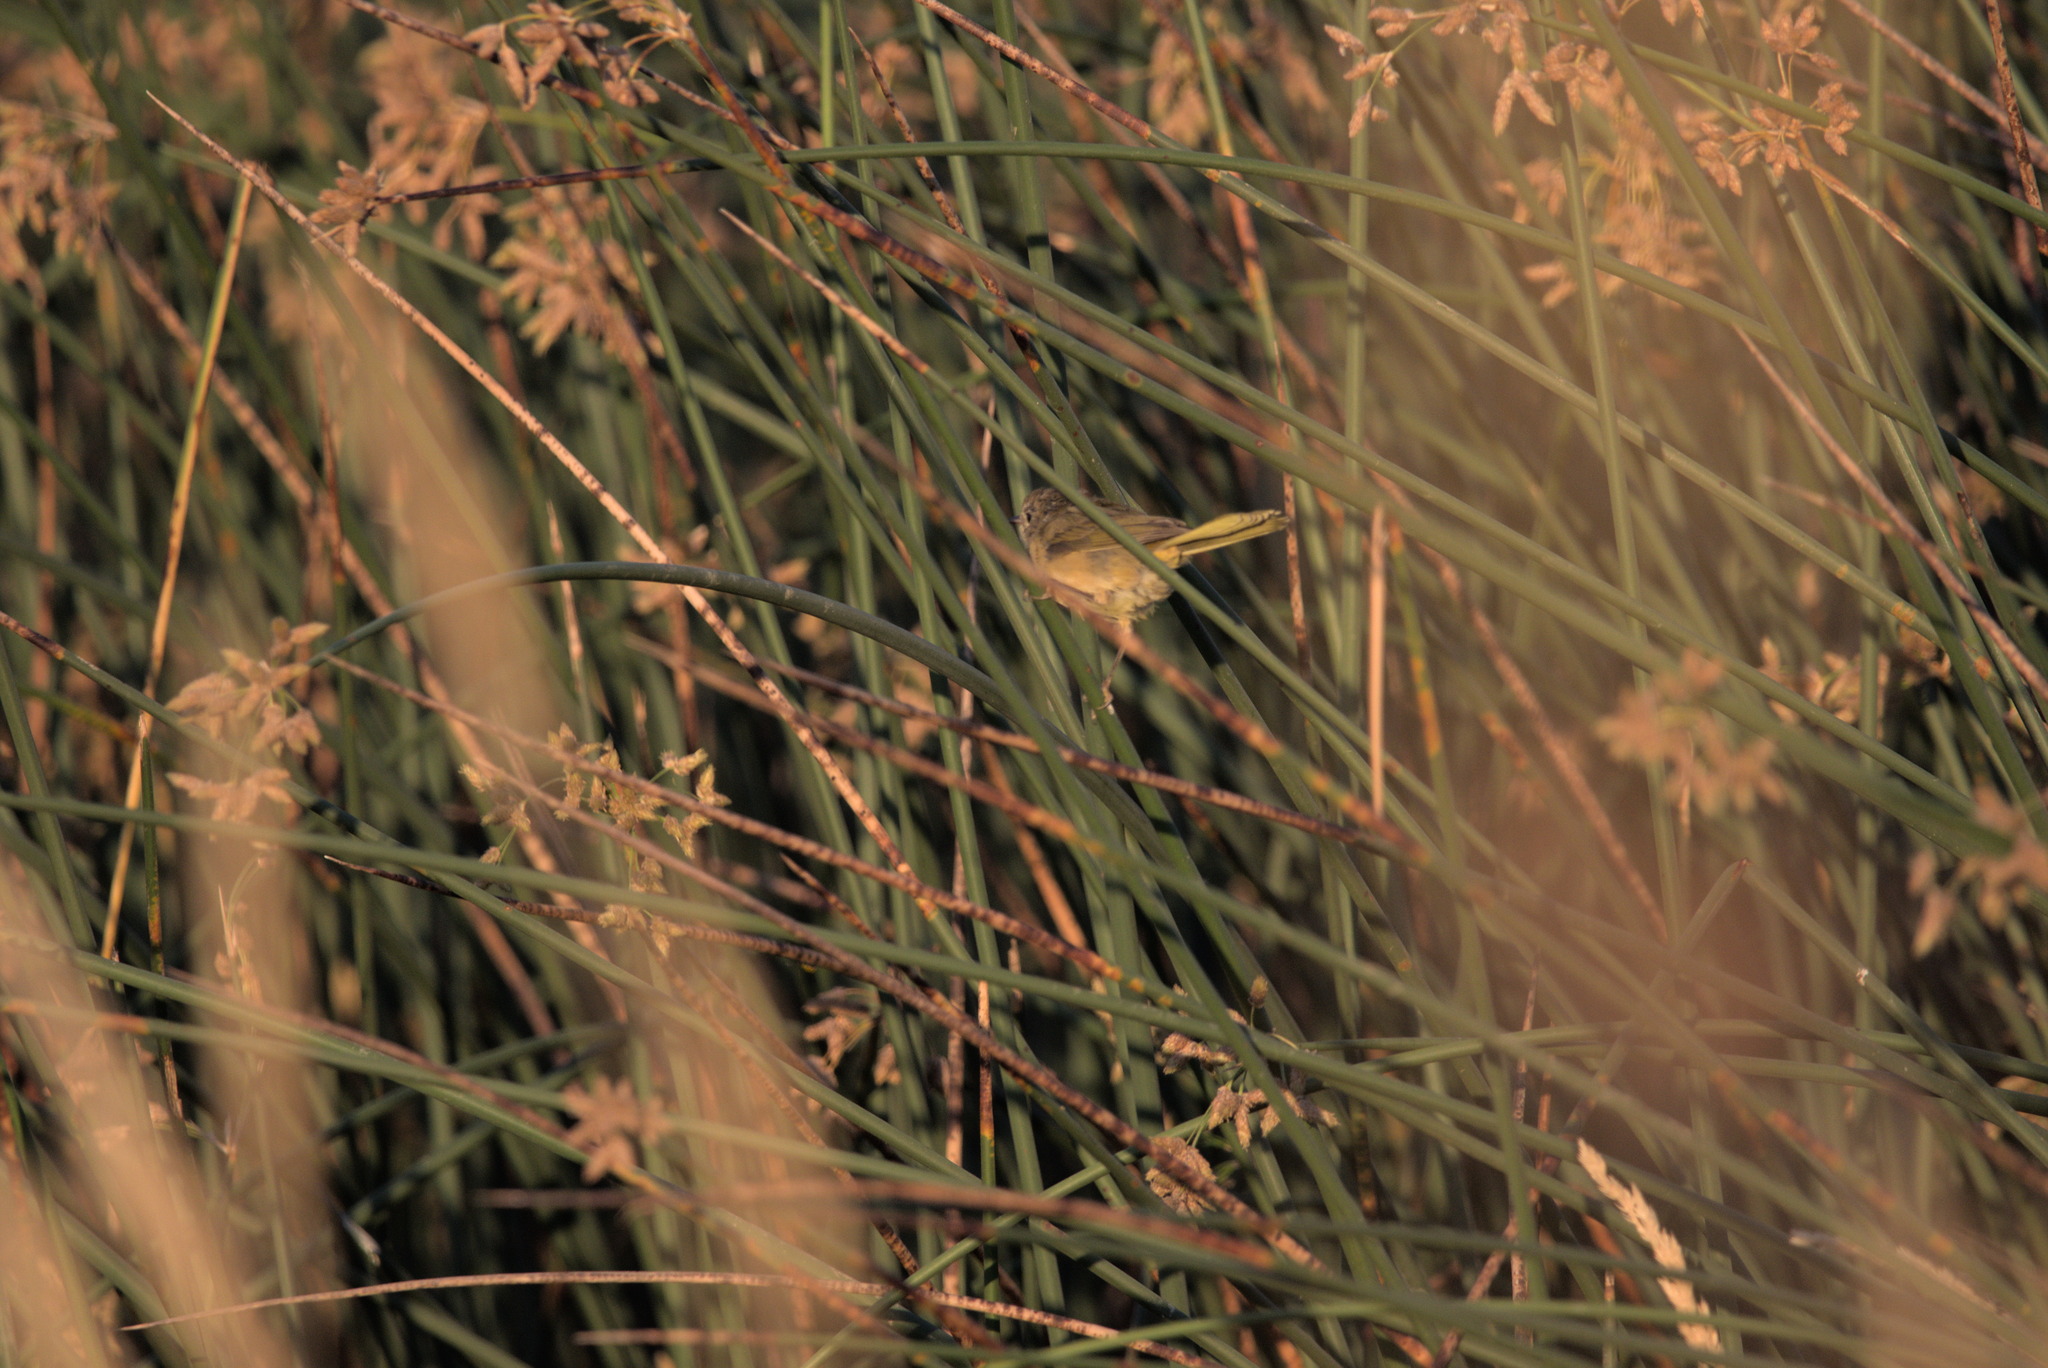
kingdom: Animalia
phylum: Chordata
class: Aves
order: Passeriformes
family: Parulidae
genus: Geothlypis
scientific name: Geothlypis trichas
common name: Common yellowthroat
